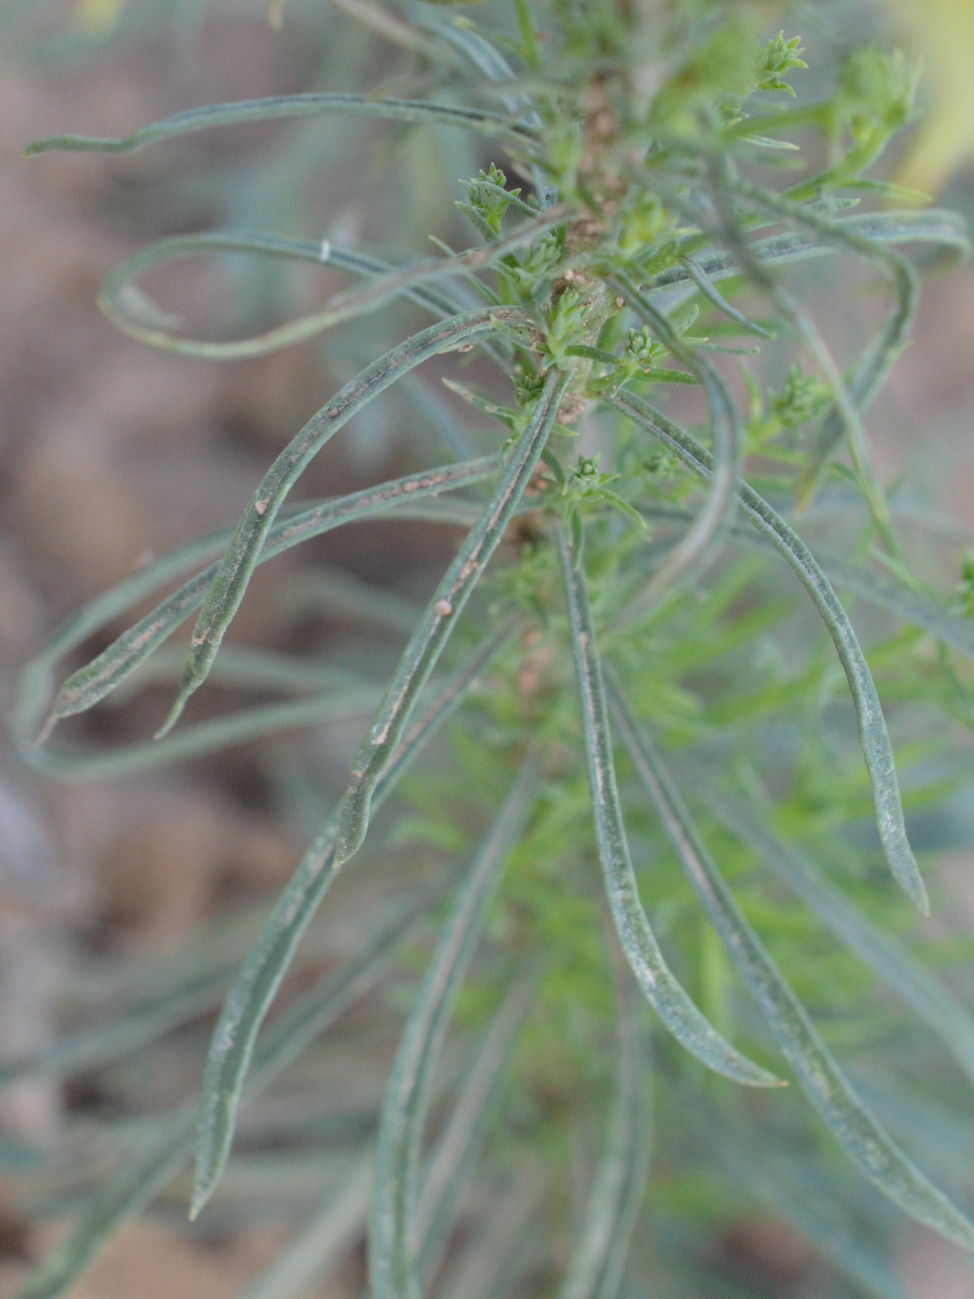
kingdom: Plantae
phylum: Tracheophyta
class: Magnoliopsida
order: Lamiales
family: Plantaginaceae
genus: Linaria
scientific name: Linaria vulgaris
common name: Butter and eggs
